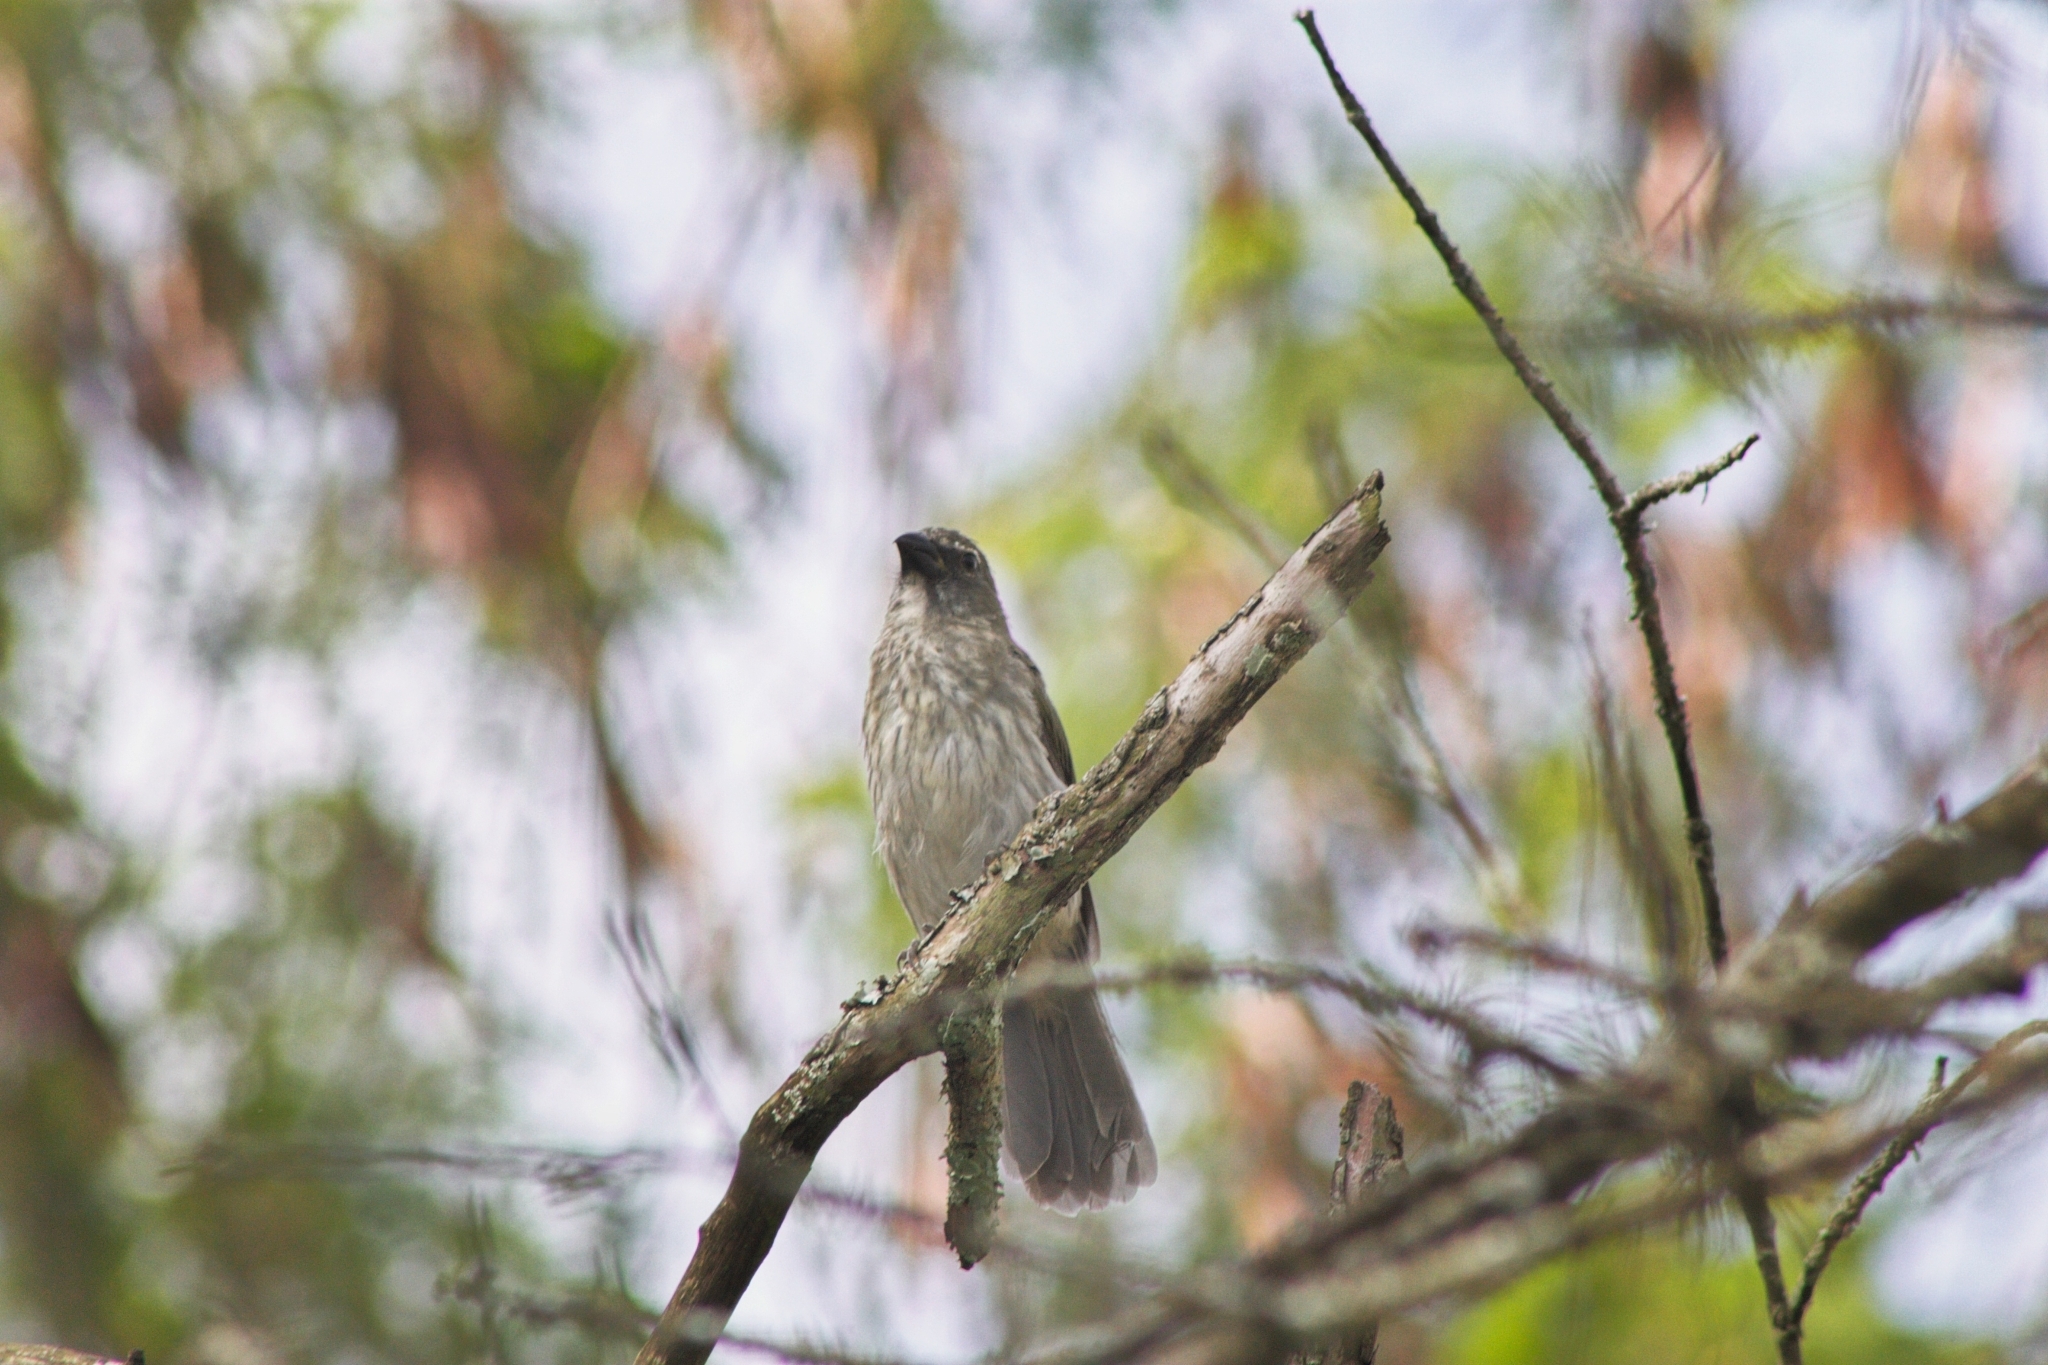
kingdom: Animalia
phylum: Chordata
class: Aves
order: Passeriformes
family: Thraupidae
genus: Saltator
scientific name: Saltator striatipectus
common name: Streaked saltator
